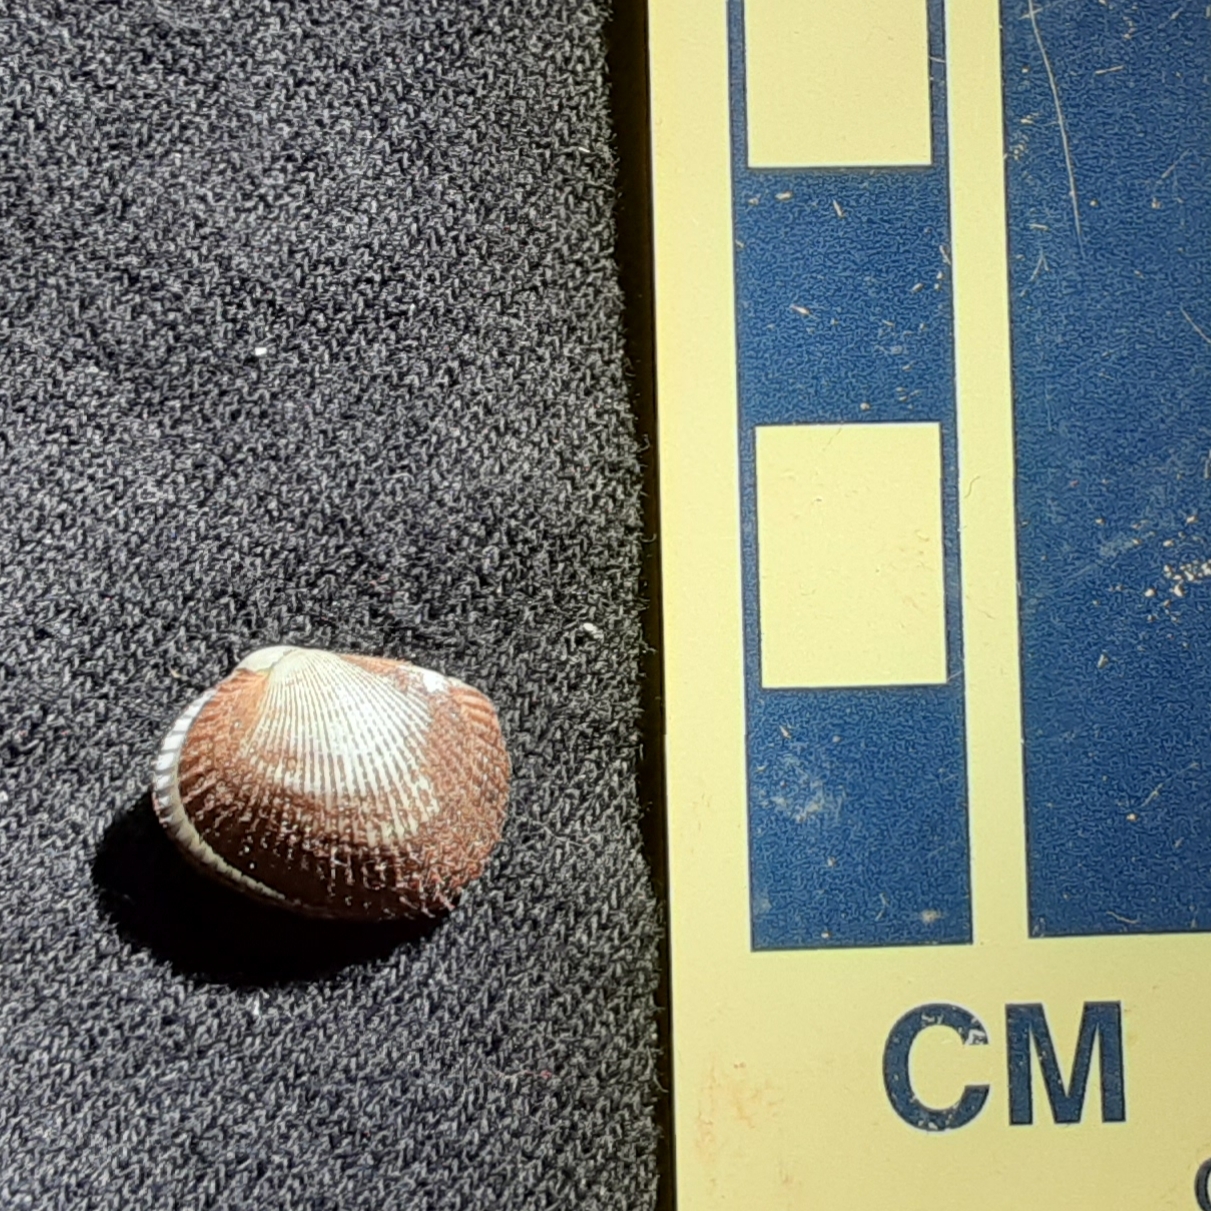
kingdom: Animalia
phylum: Mollusca
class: Bivalvia
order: Arcida
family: Arcidae
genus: Lunarca
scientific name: Lunarca ovalis
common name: Blood ark
